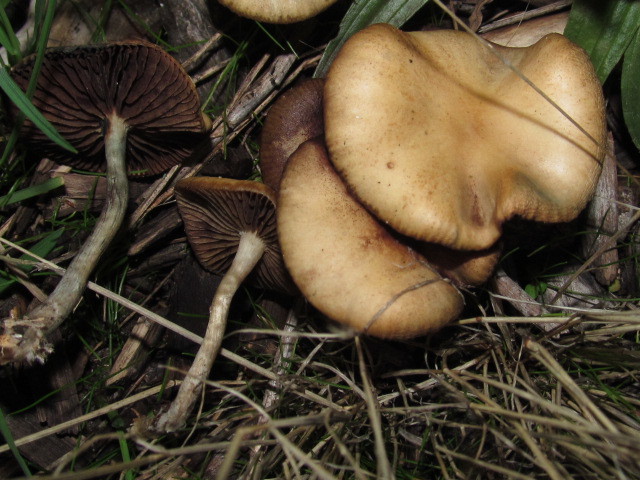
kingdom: Fungi
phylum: Basidiomycota
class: Agaricomycetes
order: Agaricales
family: Hymenogastraceae
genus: Psilocybe
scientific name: Psilocybe cyanescens
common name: Blueleg brownie
